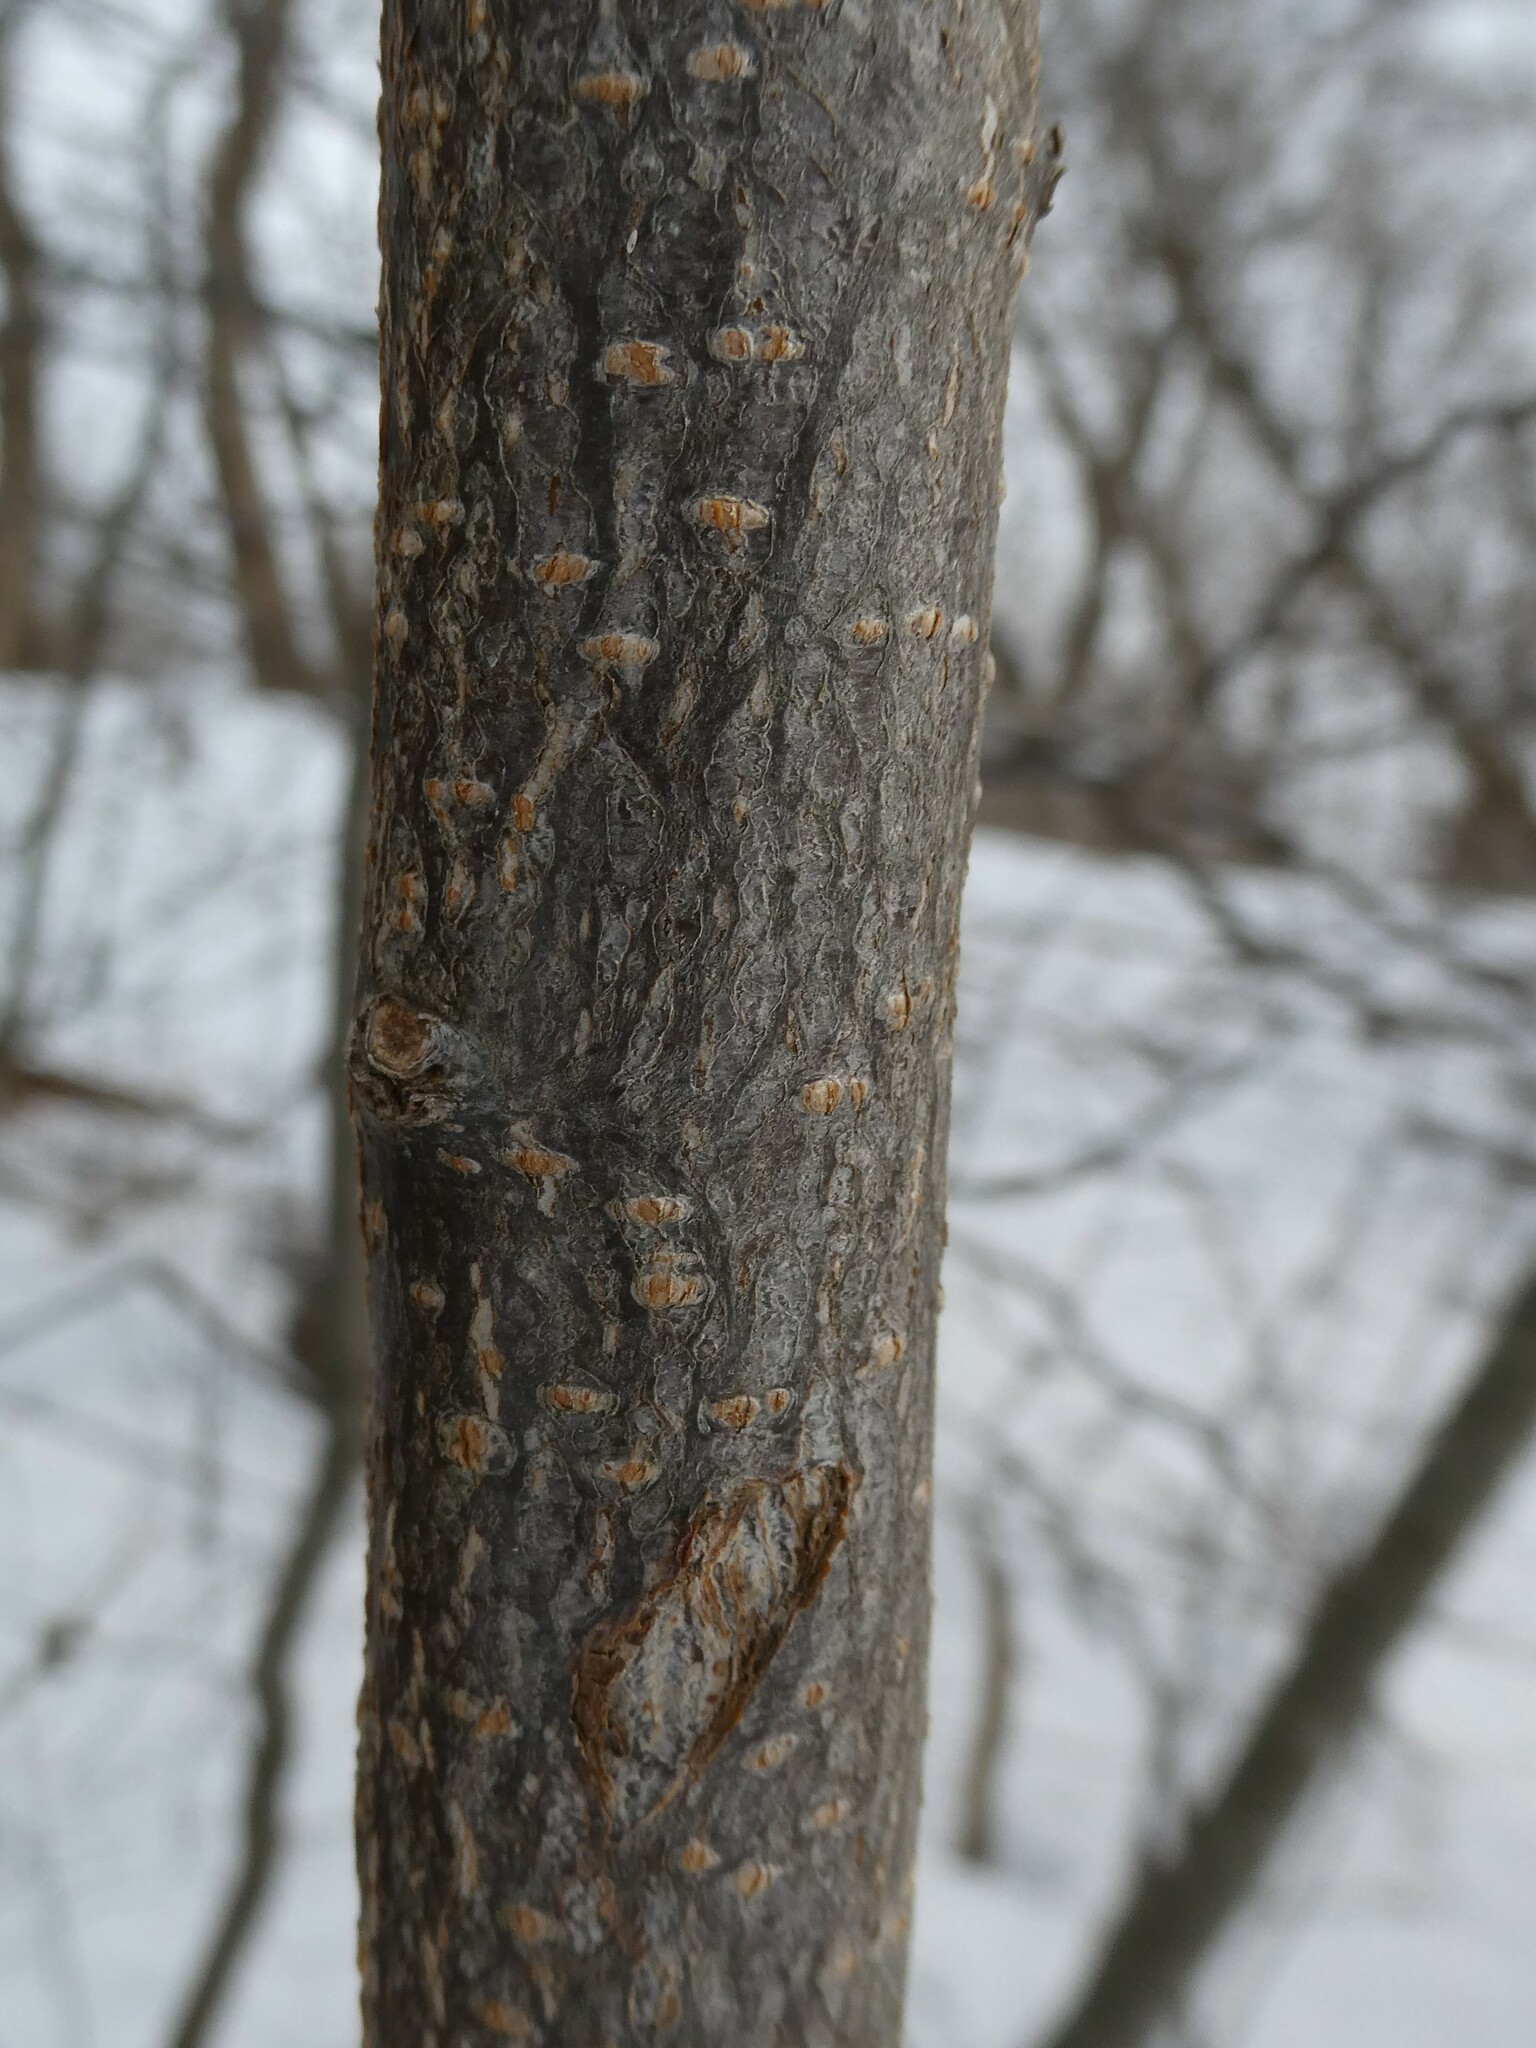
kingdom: Plantae
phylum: Tracheophyta
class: Magnoliopsida
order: Rosales
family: Rosaceae
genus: Prunus
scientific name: Prunus virginiana
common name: Chokecherry
